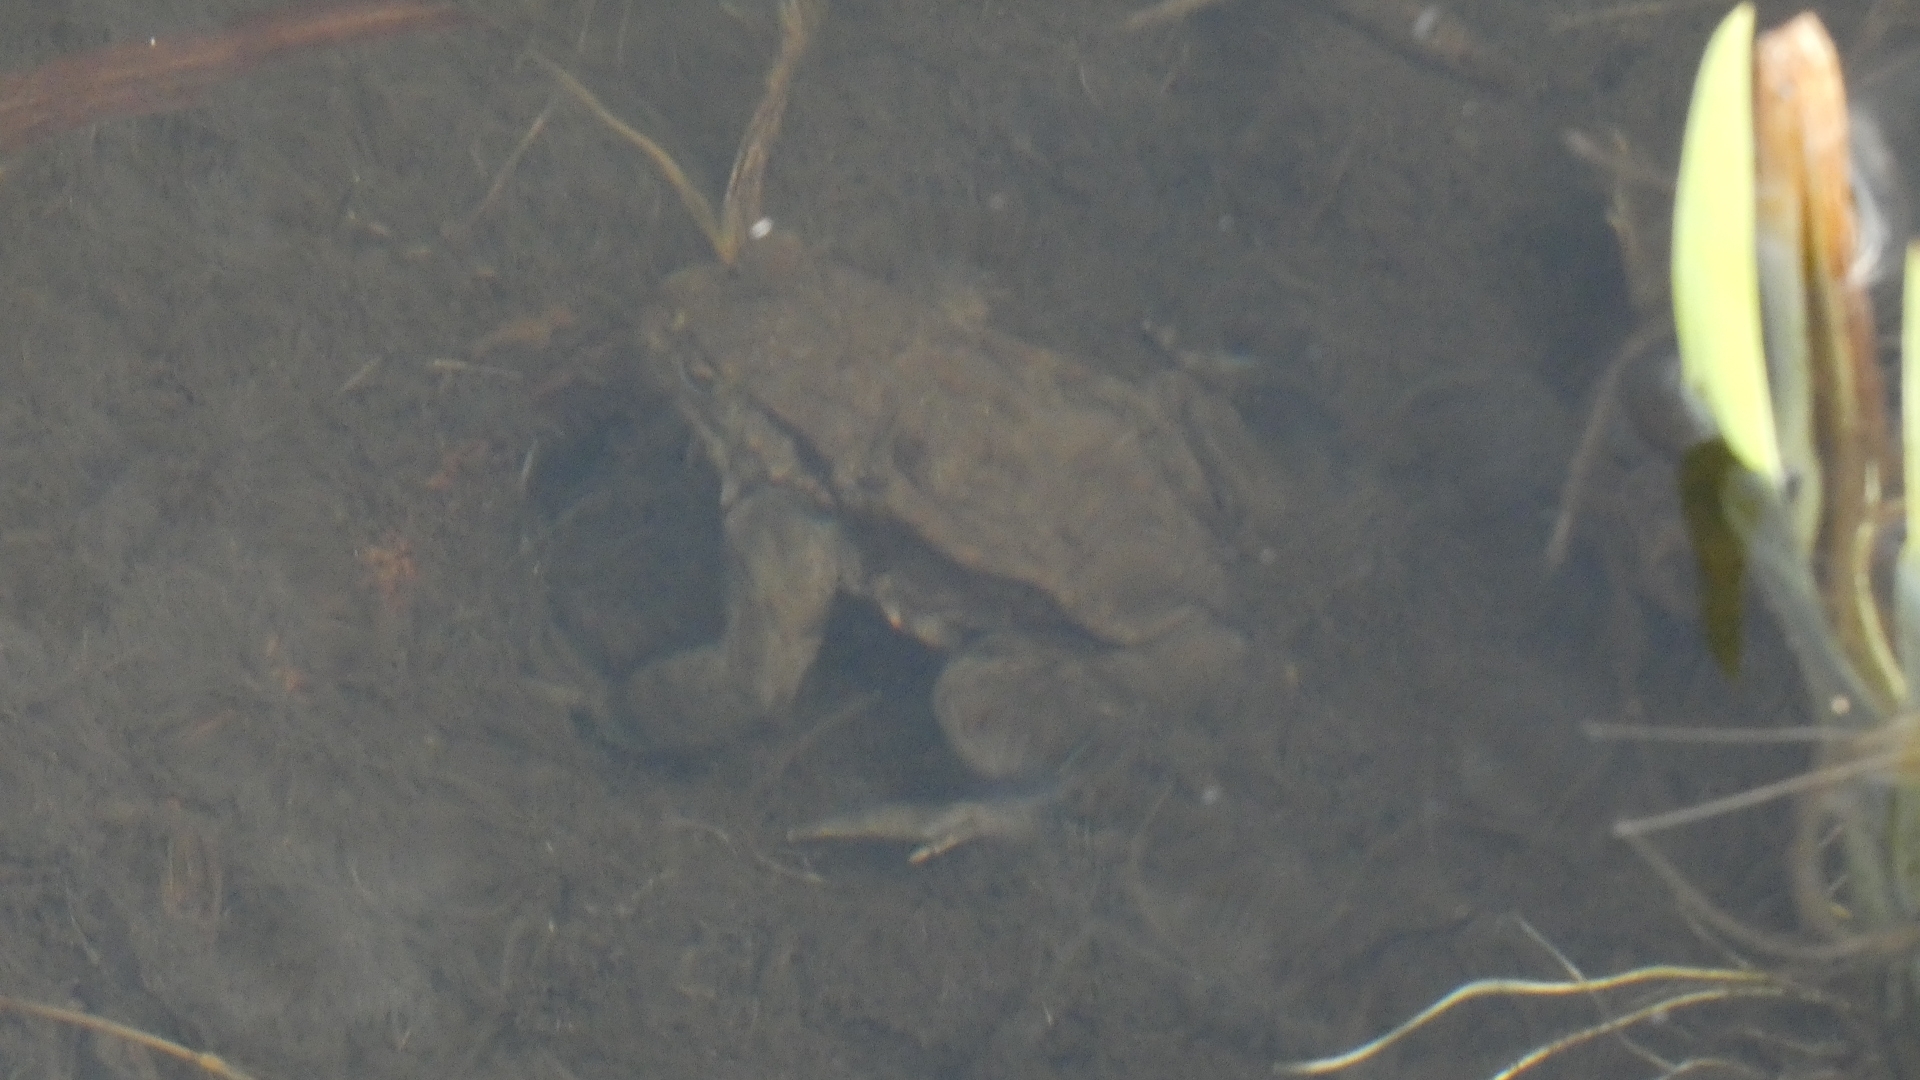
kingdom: Animalia
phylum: Chordata
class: Amphibia
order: Anura
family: Bufonidae
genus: Bufo
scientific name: Bufo bufo
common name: Common toad
